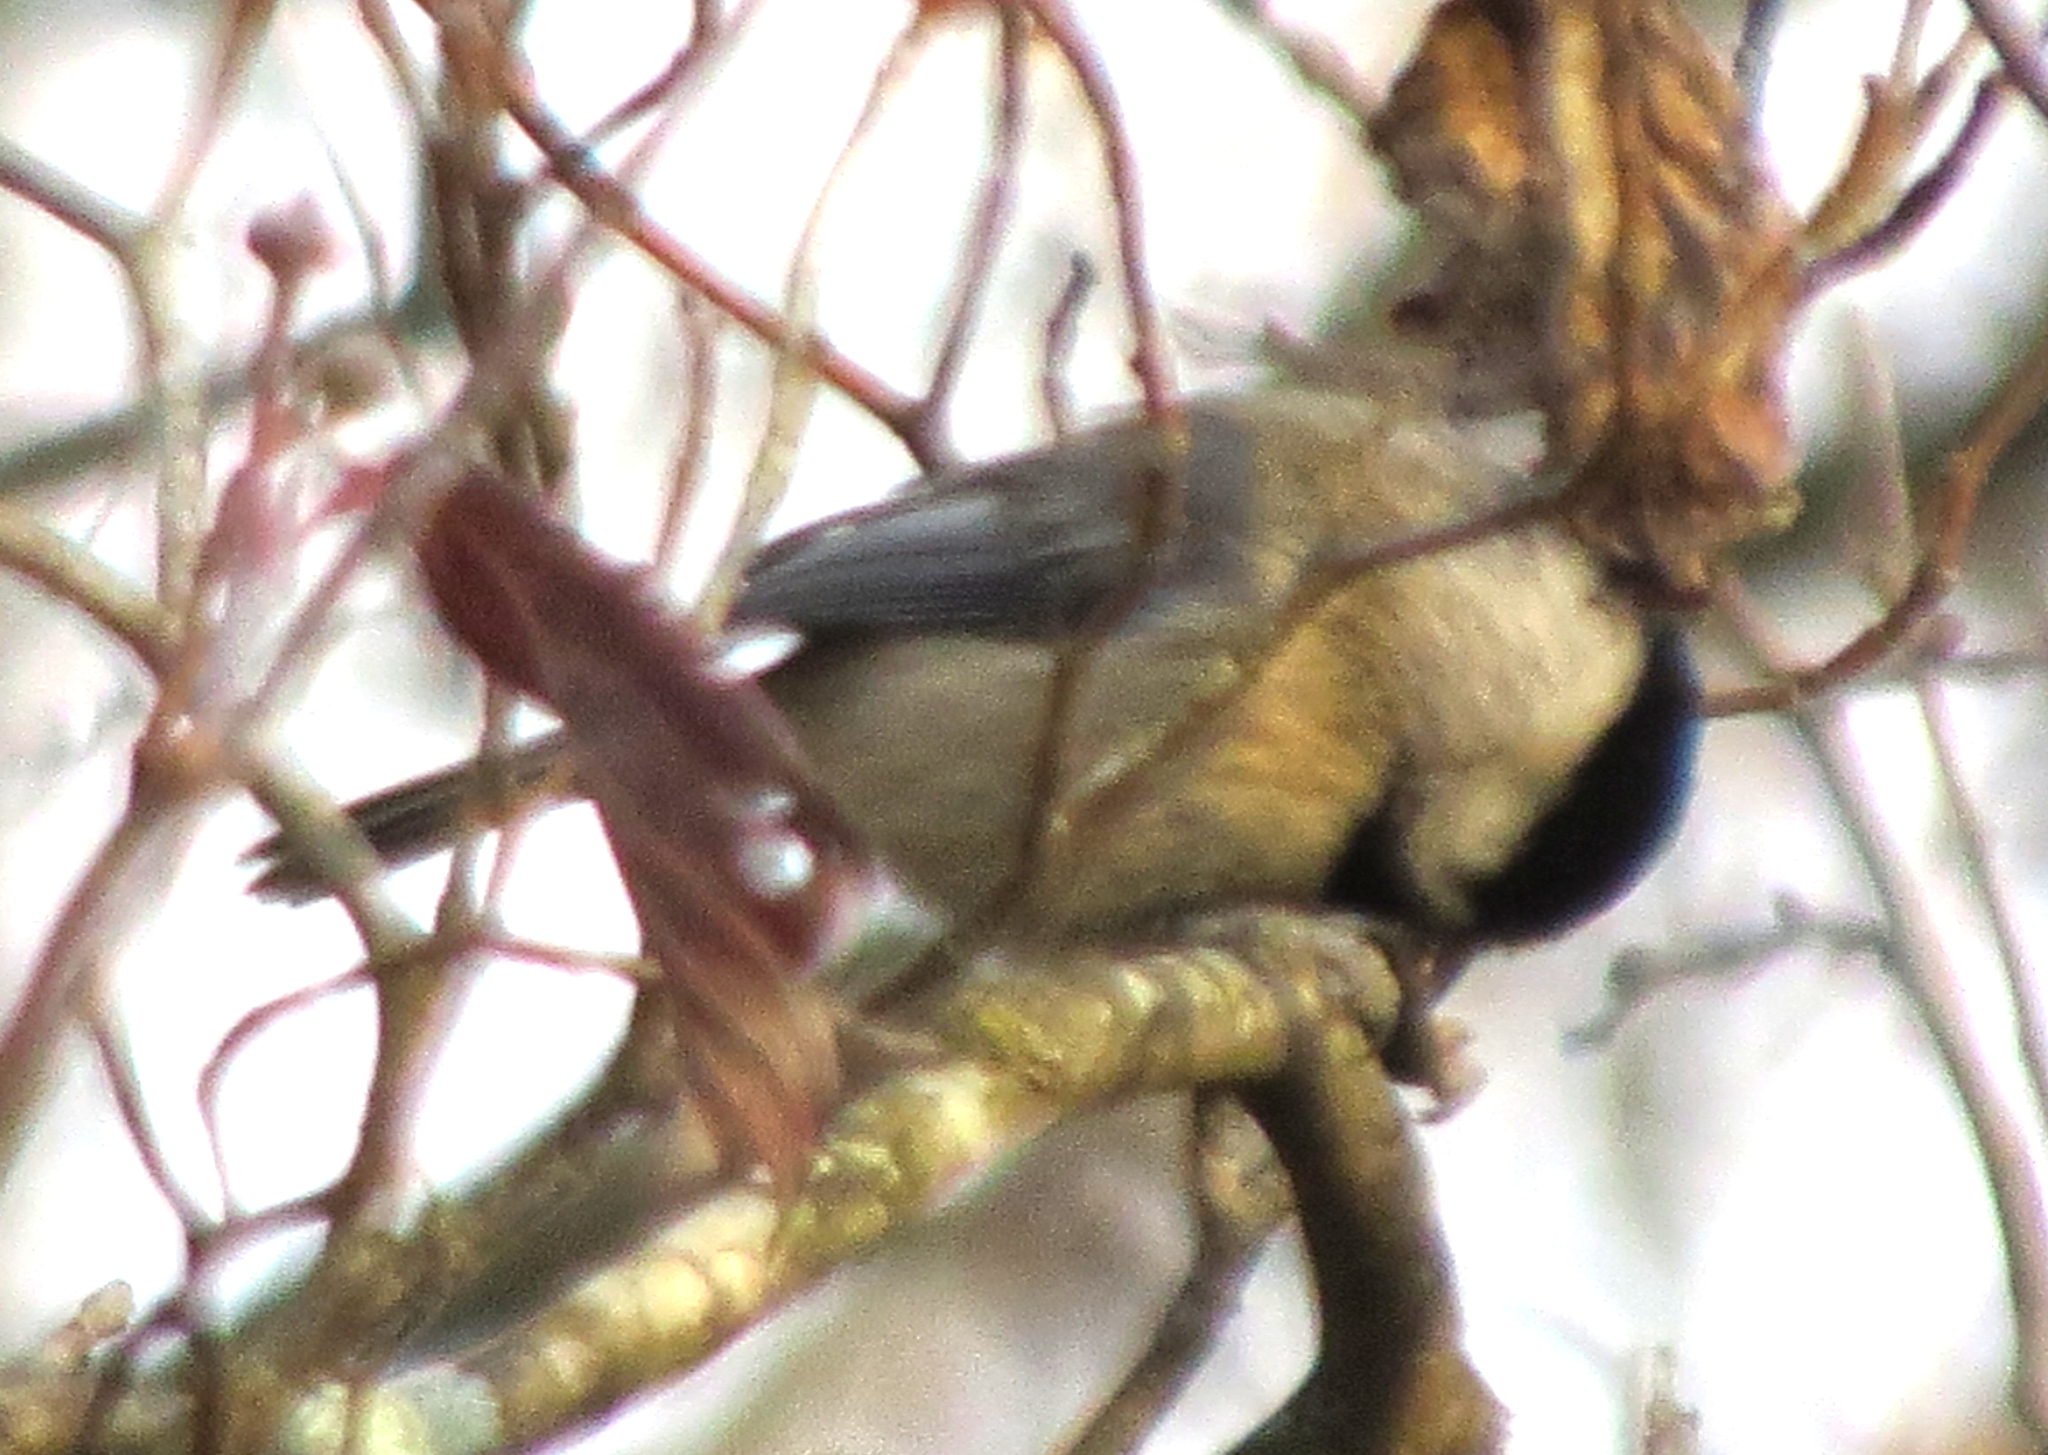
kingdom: Animalia
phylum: Chordata
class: Aves
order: Passeriformes
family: Paridae
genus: Poecile
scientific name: Poecile carolinensis
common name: Carolina chickadee
